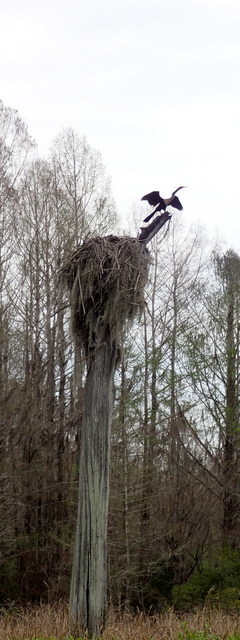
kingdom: Animalia
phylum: Chordata
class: Aves
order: Suliformes
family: Anhingidae
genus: Anhinga
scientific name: Anhinga anhinga
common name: Anhinga
